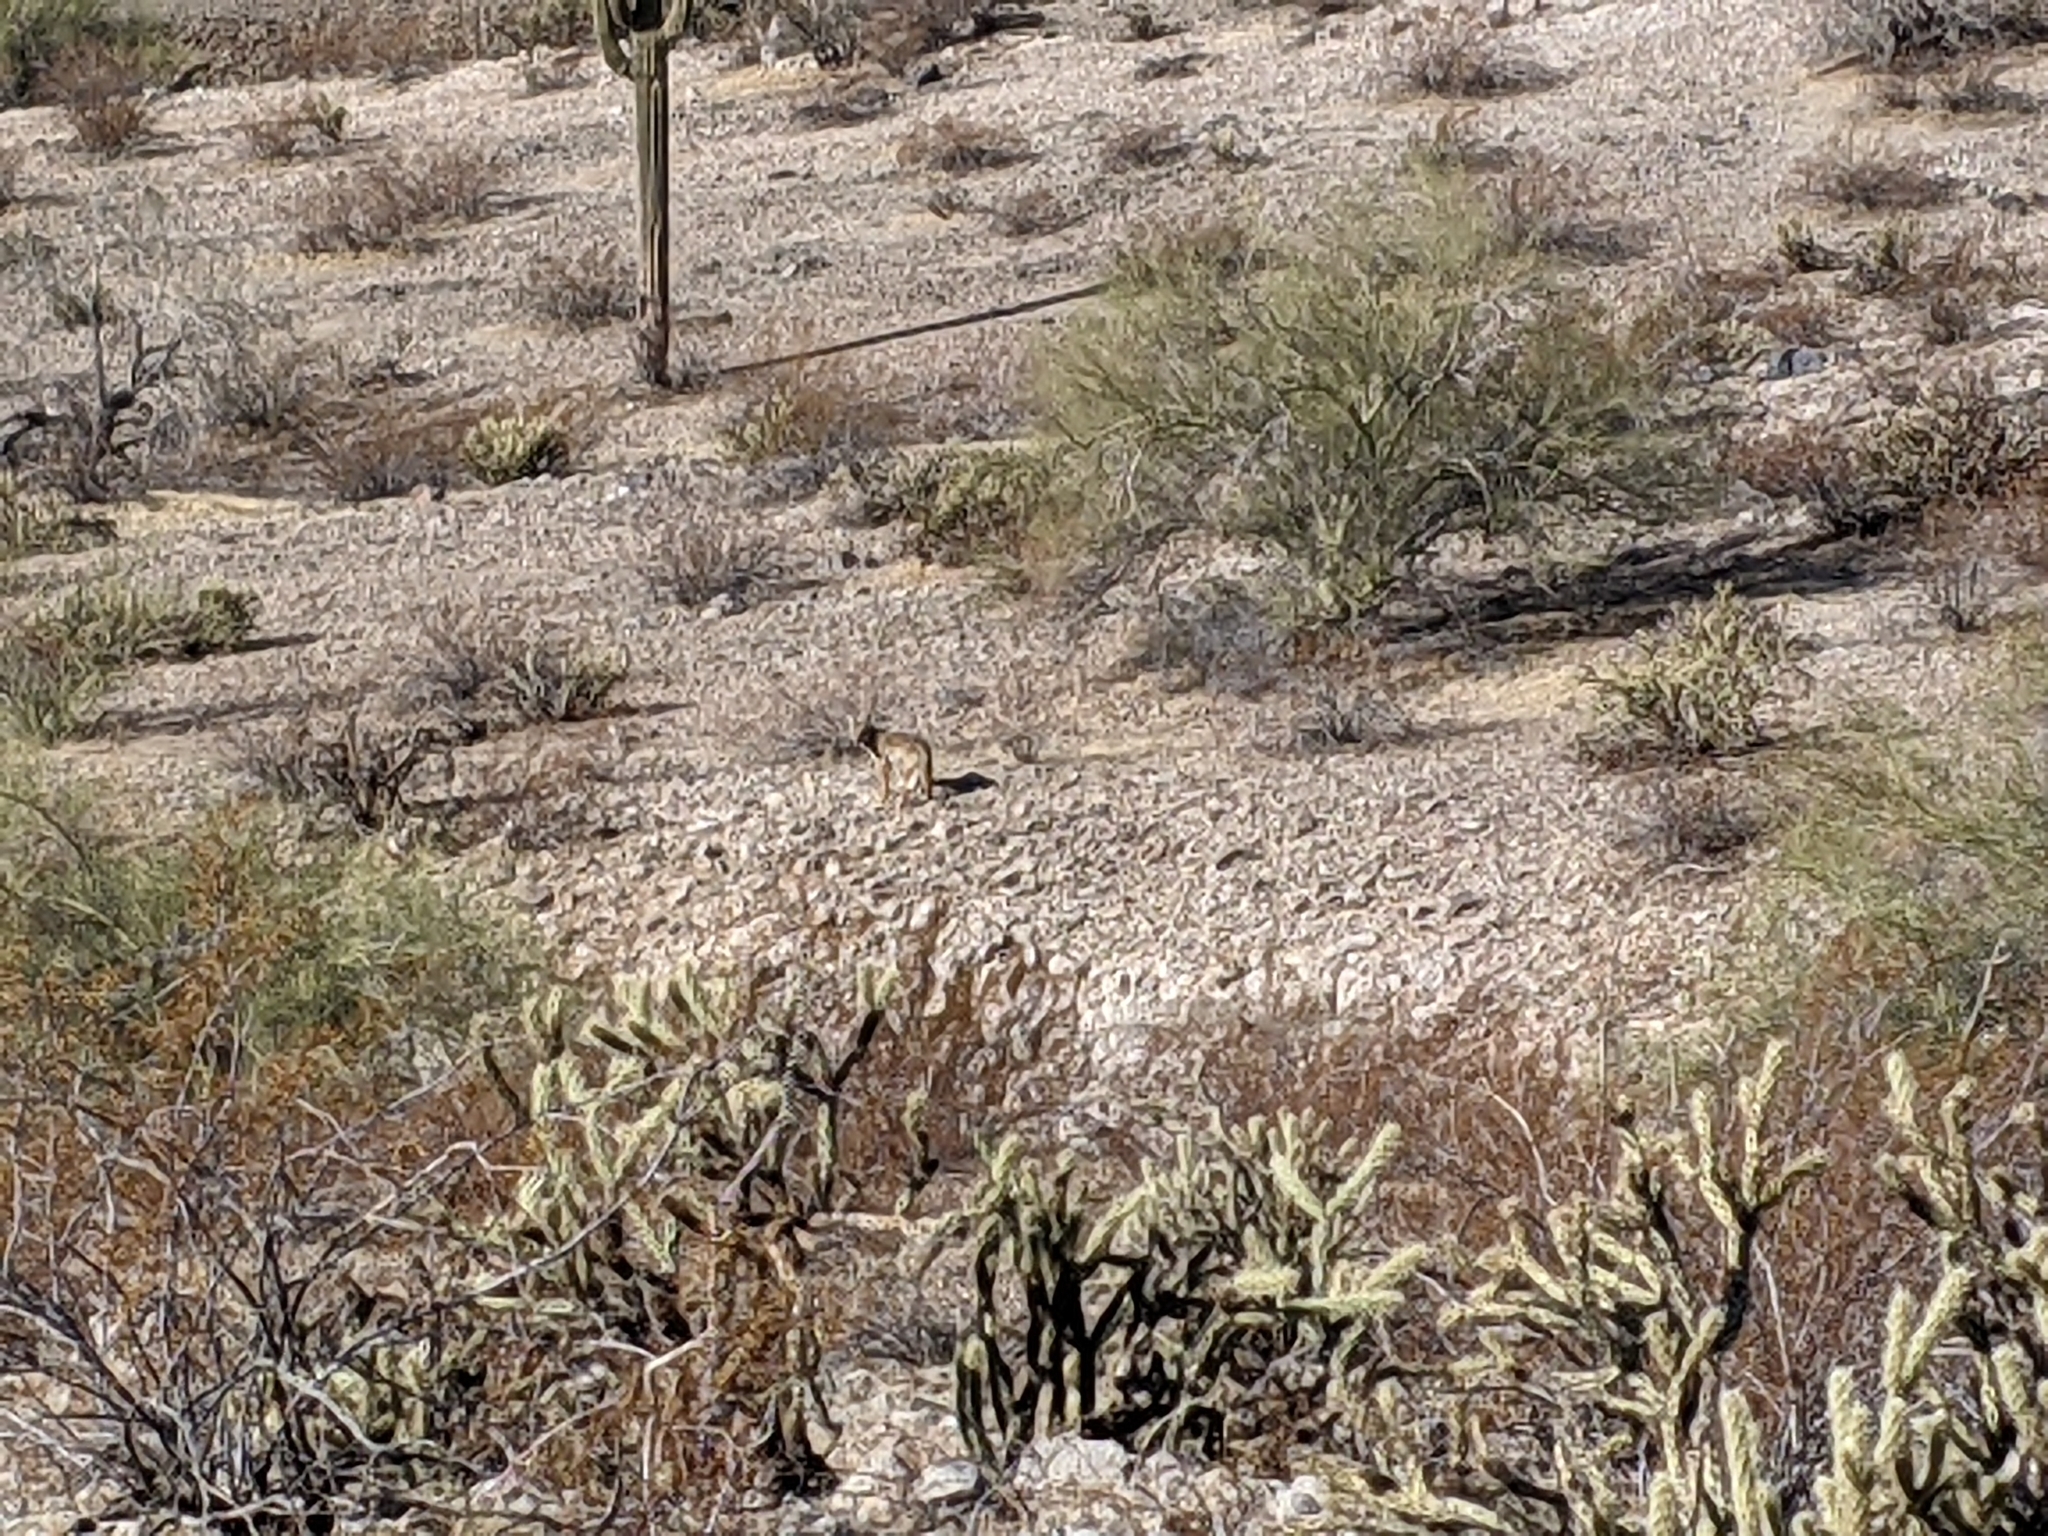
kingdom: Animalia
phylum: Chordata
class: Mammalia
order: Carnivora
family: Canidae
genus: Canis
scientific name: Canis latrans
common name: Coyote
